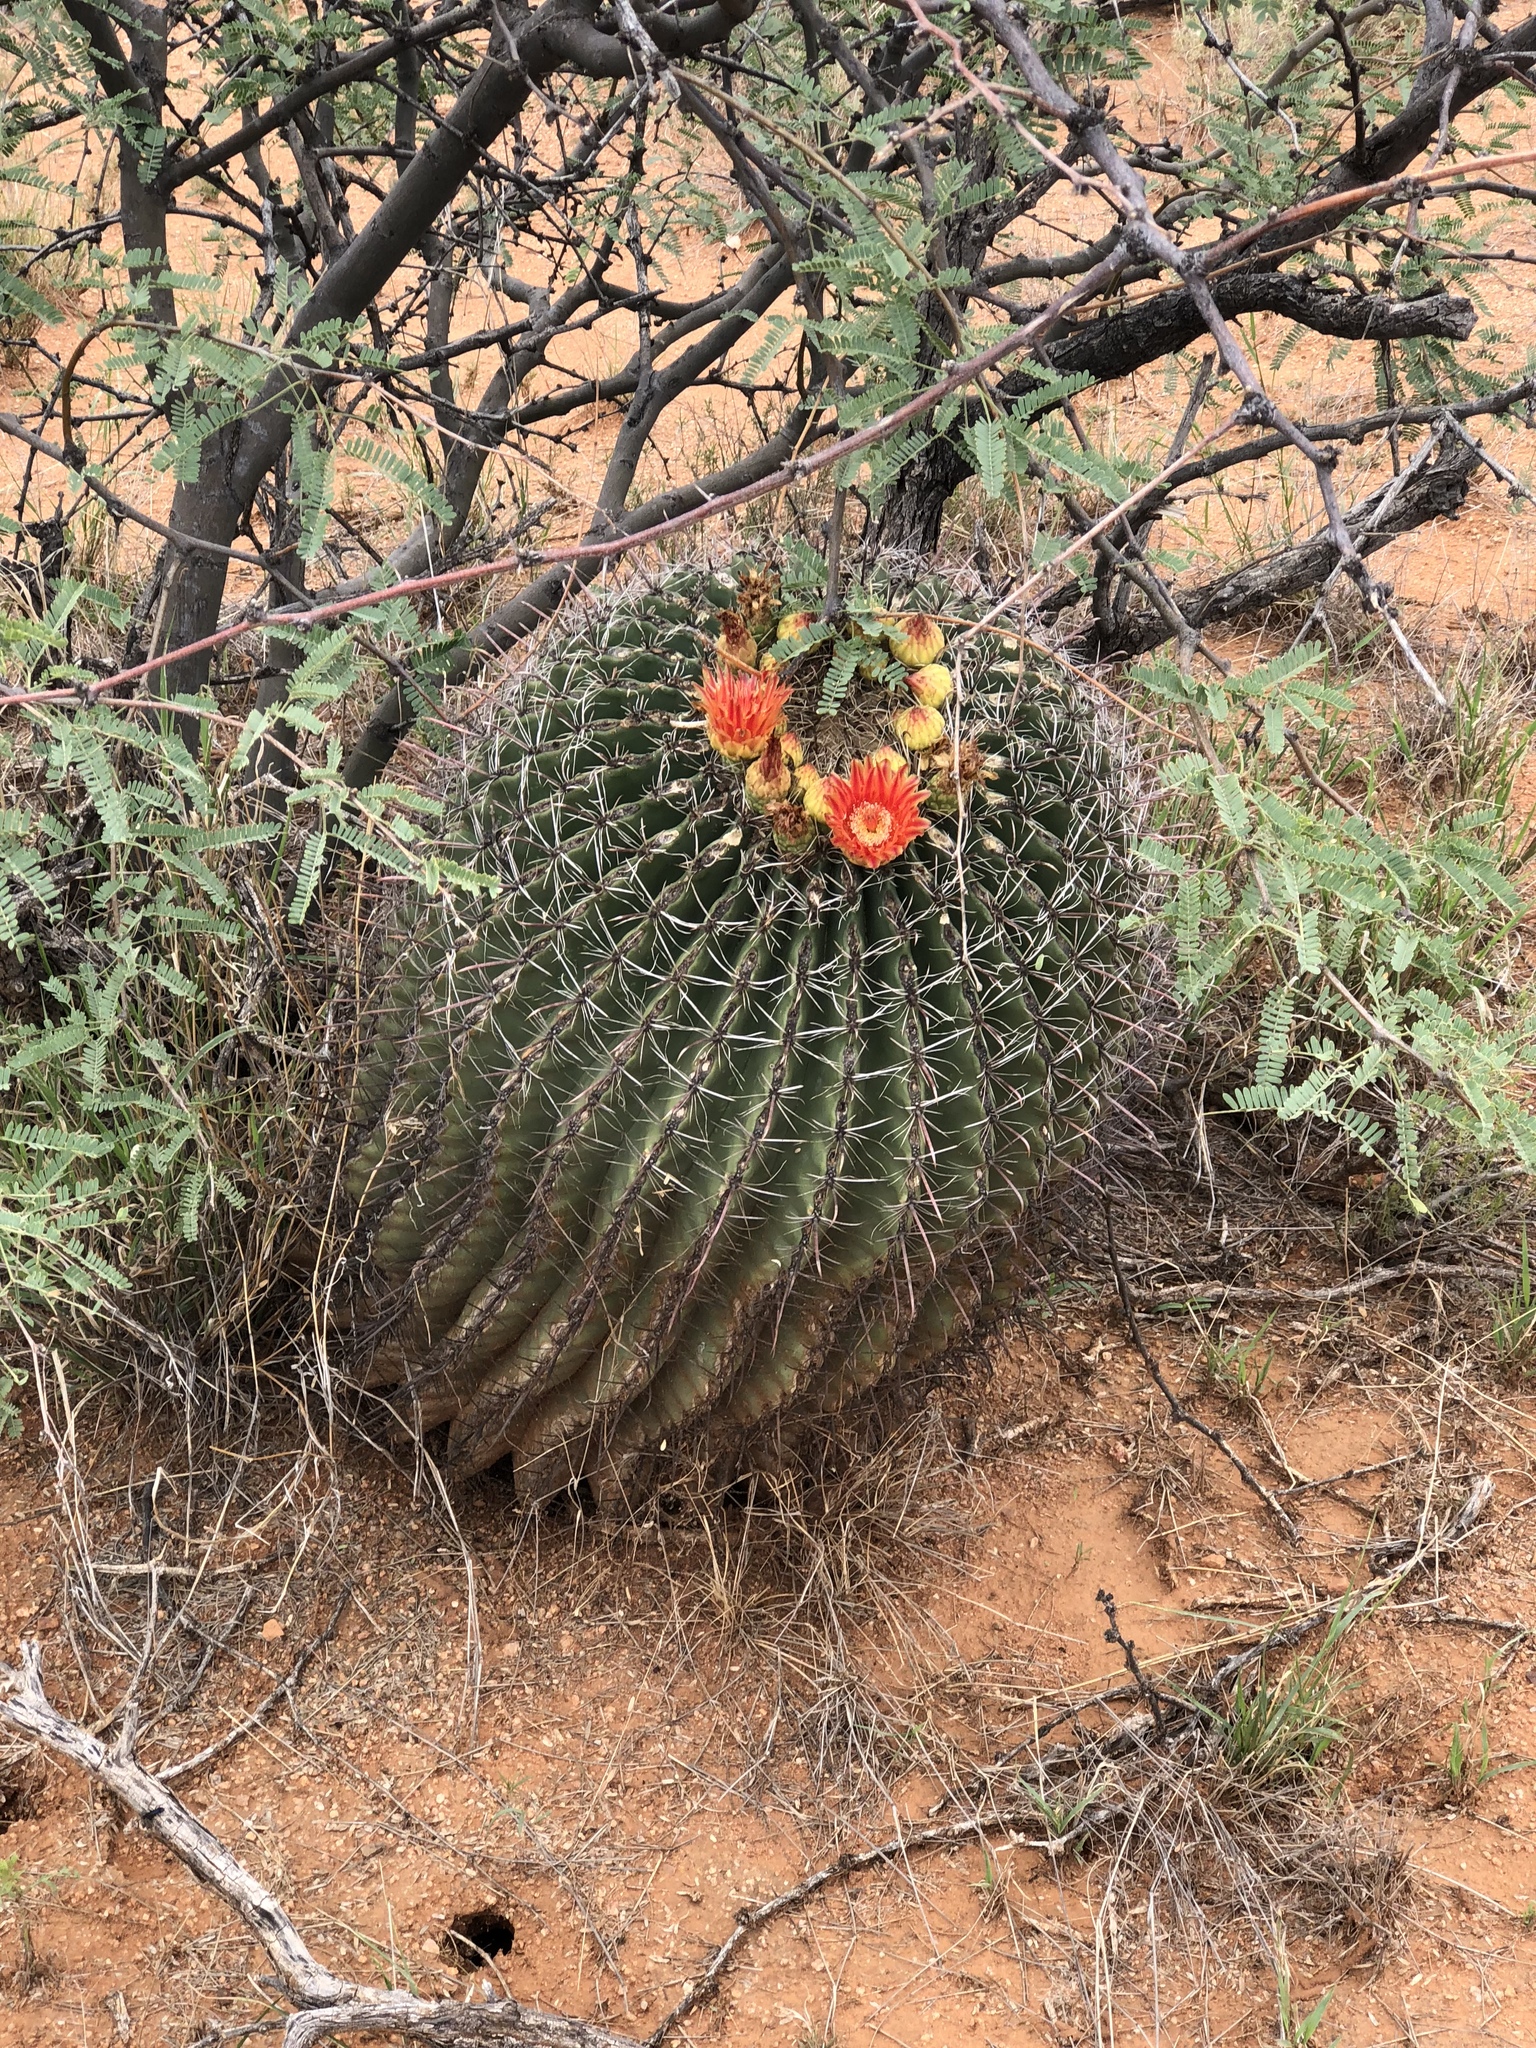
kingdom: Plantae
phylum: Tracheophyta
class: Magnoliopsida
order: Caryophyllales
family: Cactaceae
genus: Ferocactus
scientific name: Ferocactus wislizeni
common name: Candy barrel cactus
